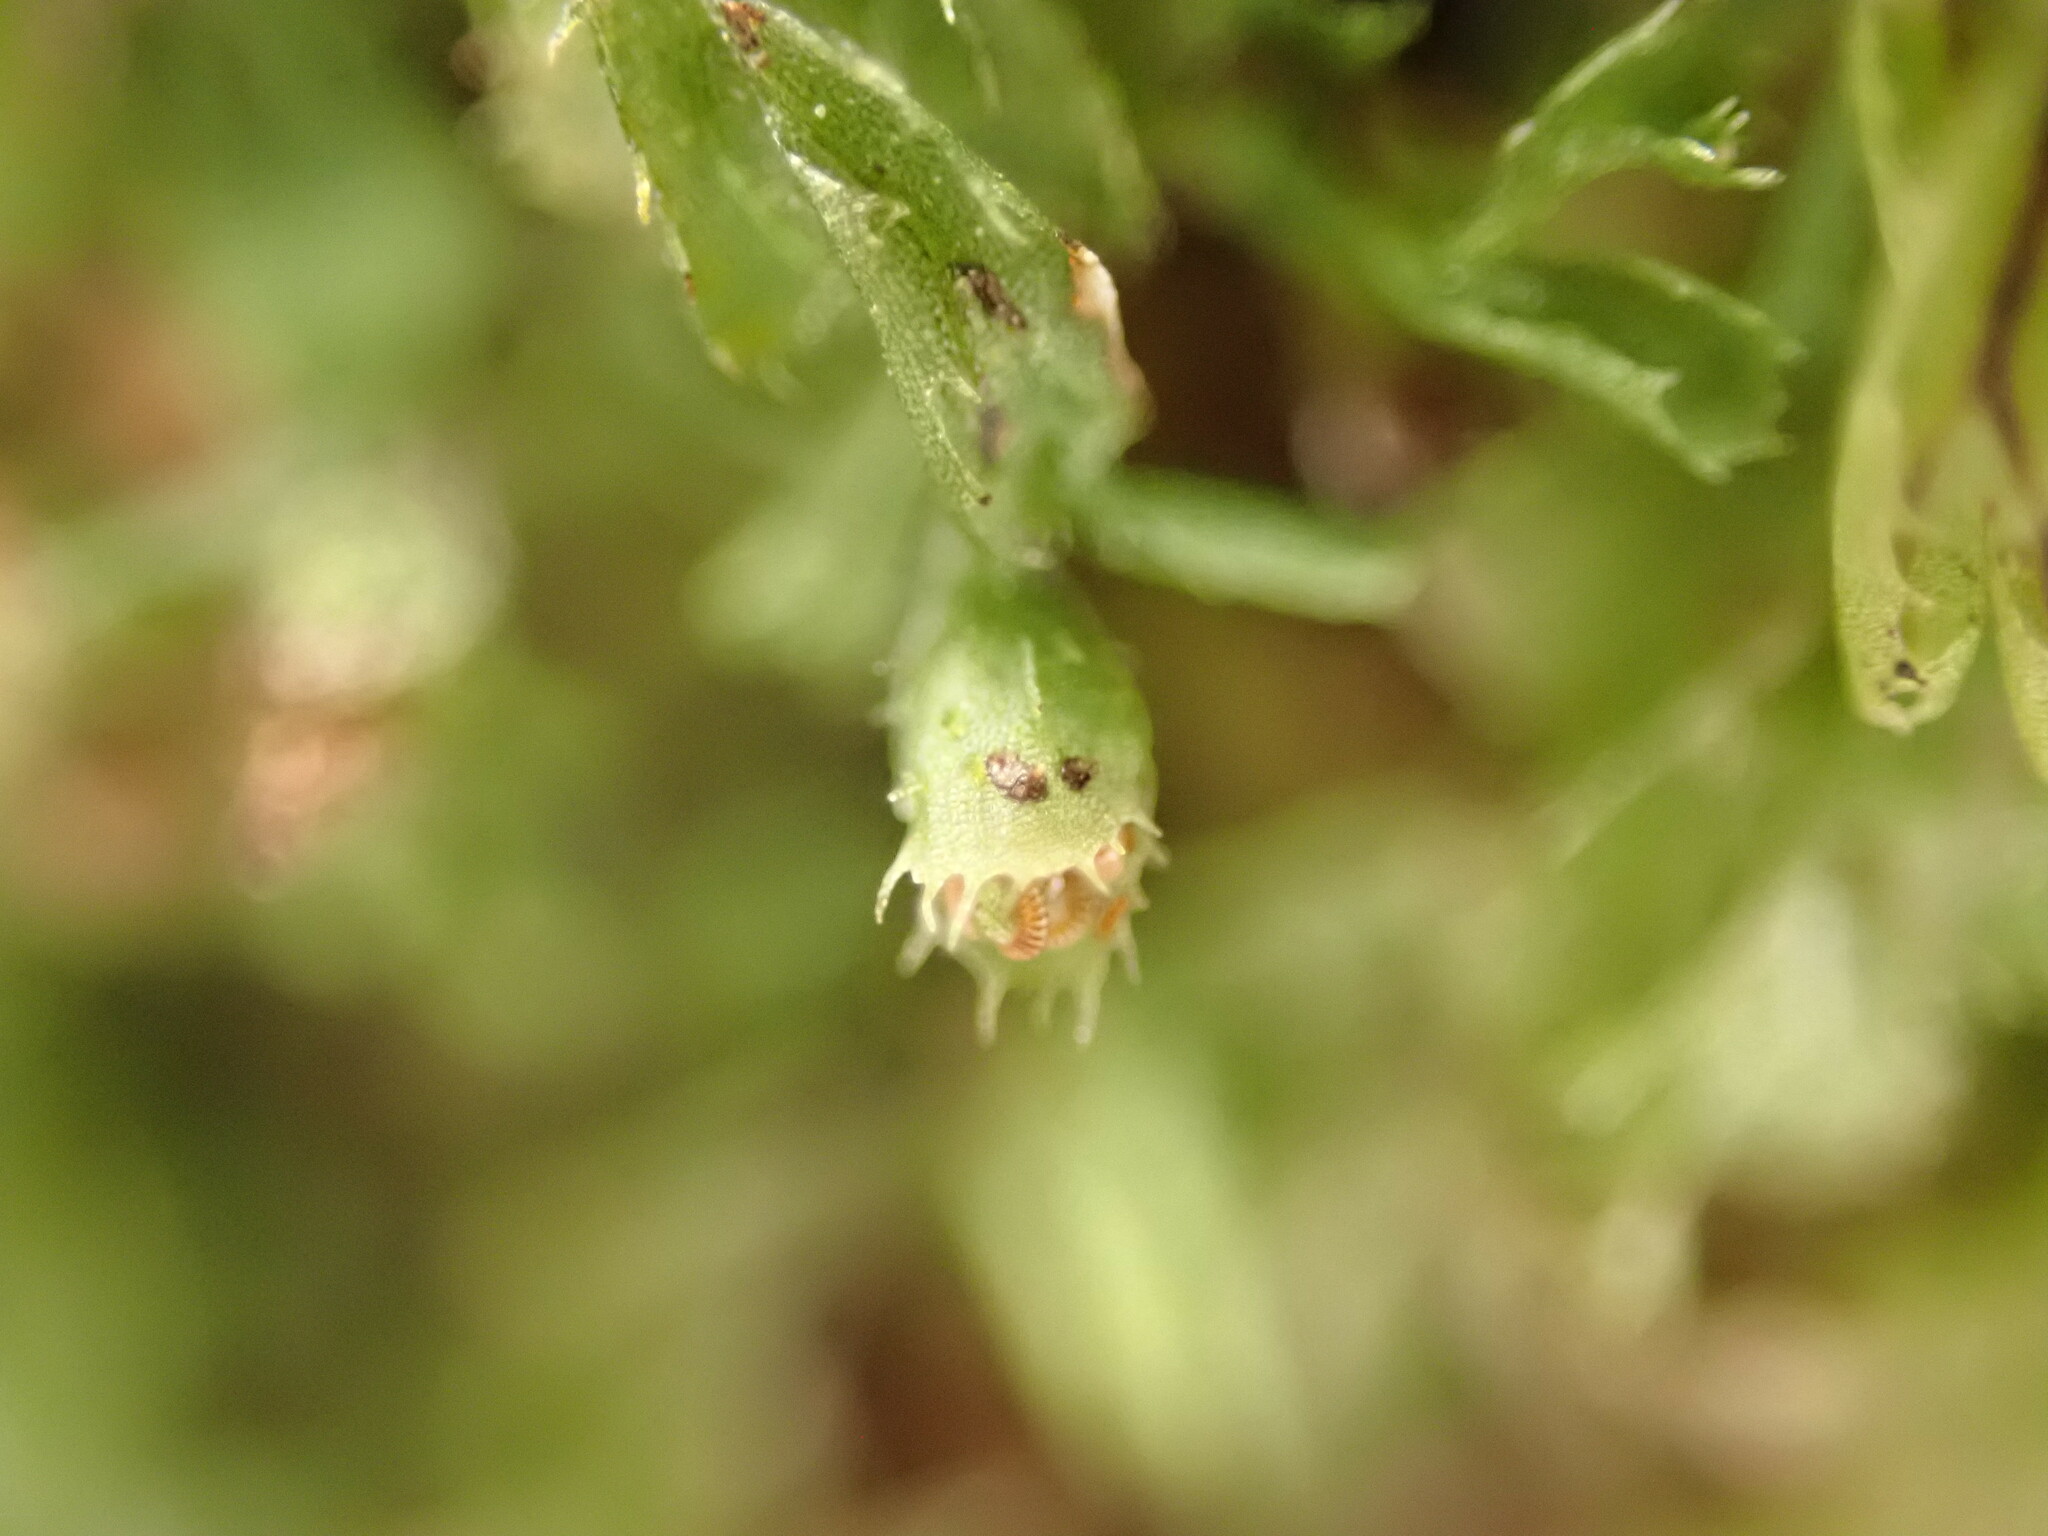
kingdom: Plantae
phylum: Tracheophyta
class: Polypodiopsida
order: Hymenophyllales
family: Hymenophyllaceae
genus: Hymenophyllum
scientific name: Hymenophyllum minimum
